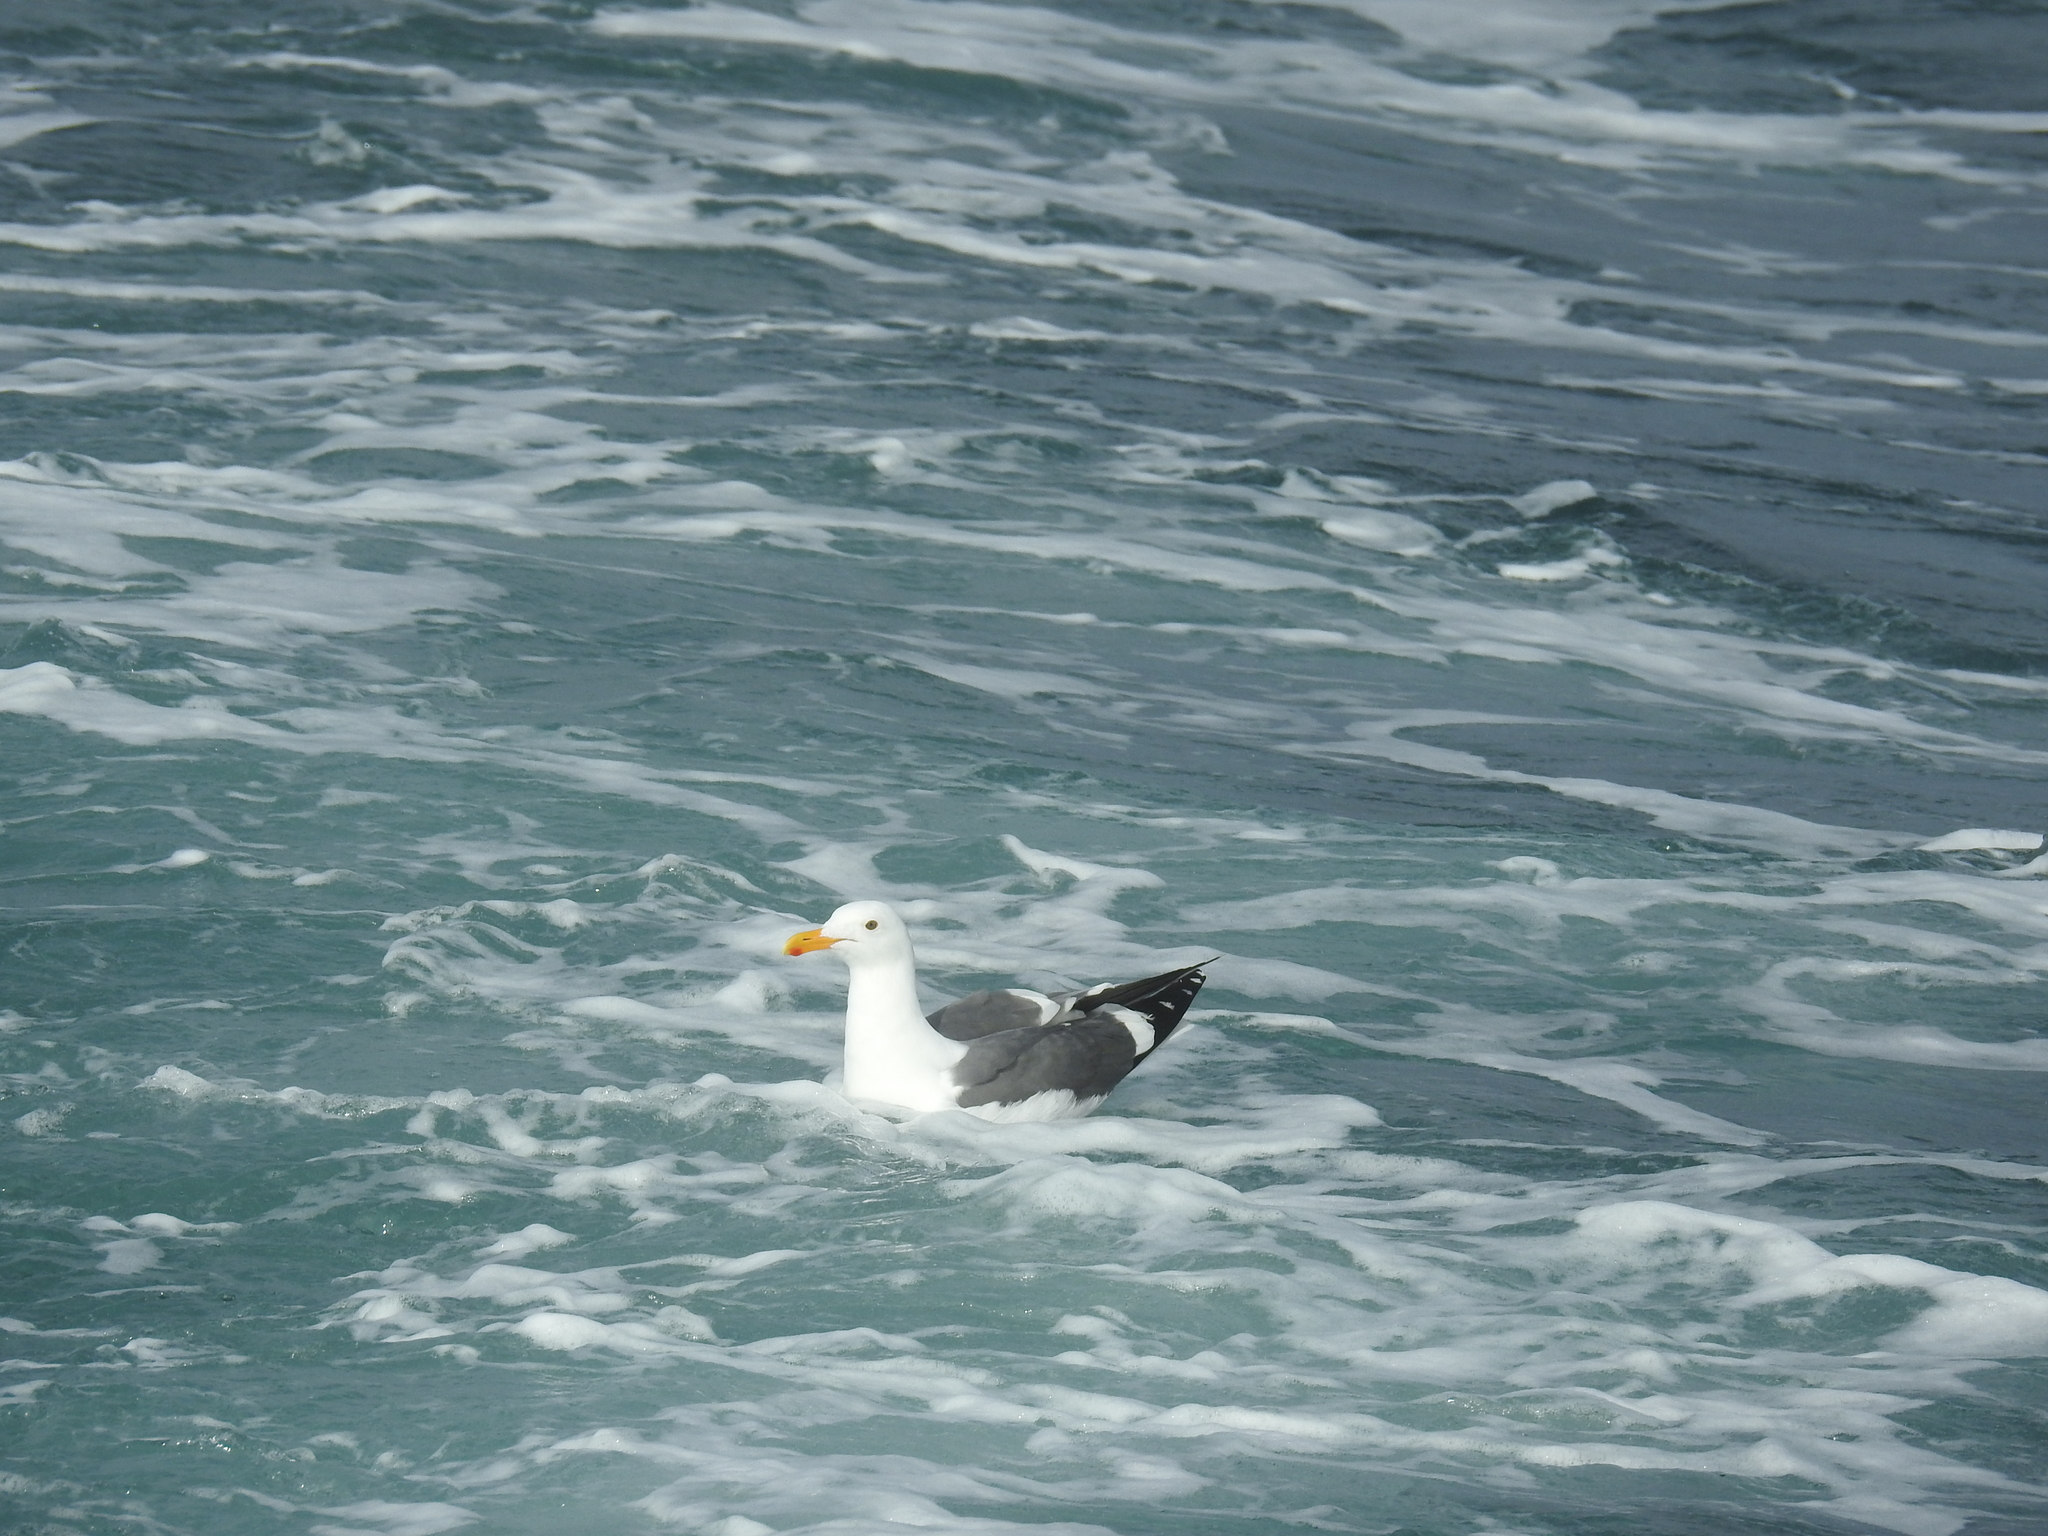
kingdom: Animalia
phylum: Chordata
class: Aves
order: Charadriiformes
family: Laridae
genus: Larus
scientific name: Larus occidentalis
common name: Western gull
